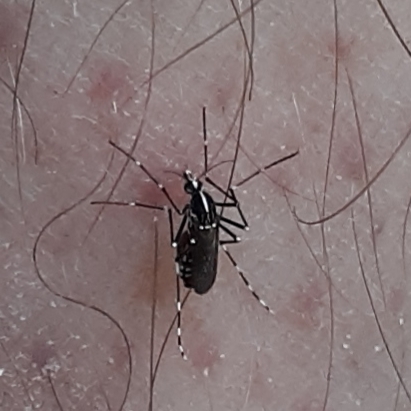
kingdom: Animalia
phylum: Arthropoda
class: Insecta
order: Diptera
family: Culicidae
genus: Aedes
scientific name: Aedes albopictus
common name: Tiger mosquito
